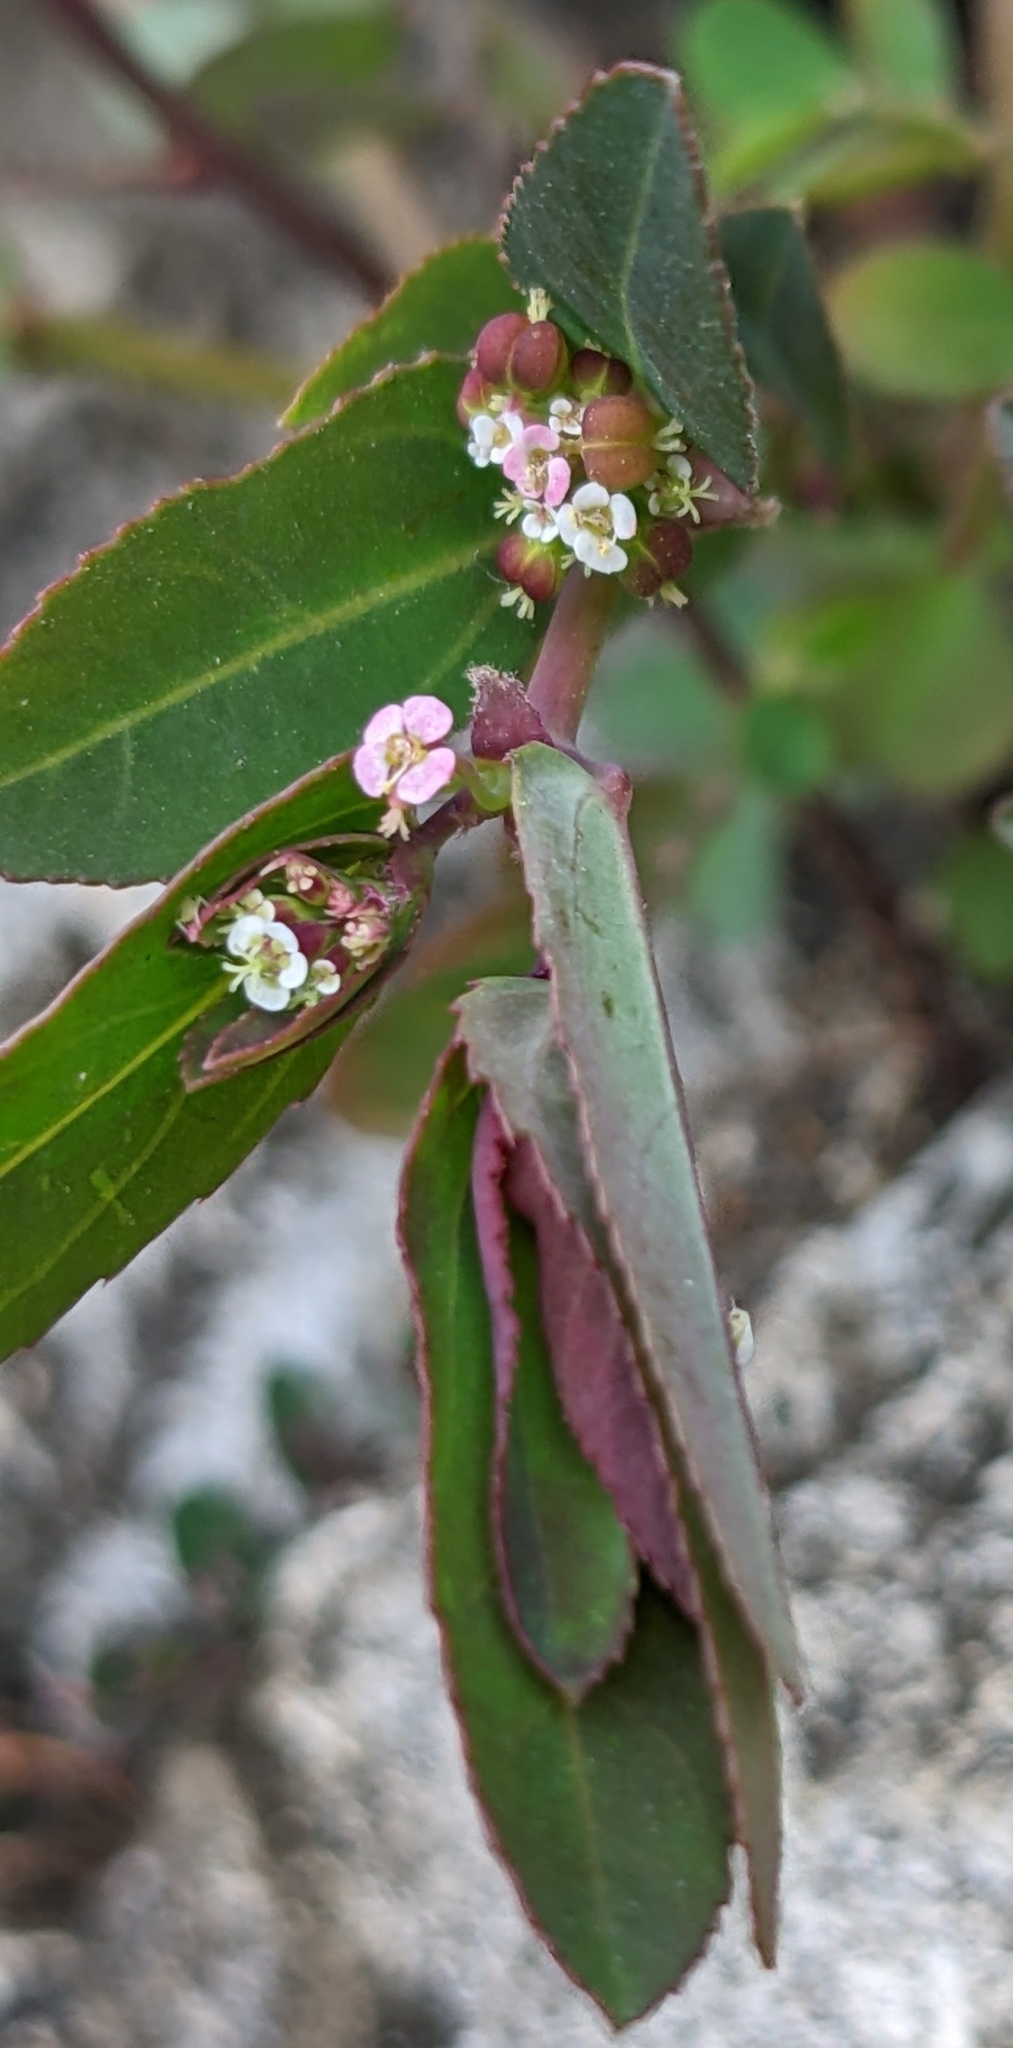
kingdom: Plantae
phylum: Tracheophyta
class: Magnoliopsida
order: Malpighiales
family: Euphorbiaceae
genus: Euphorbia
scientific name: Euphorbia hypericifolia
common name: Graceful sandmat
